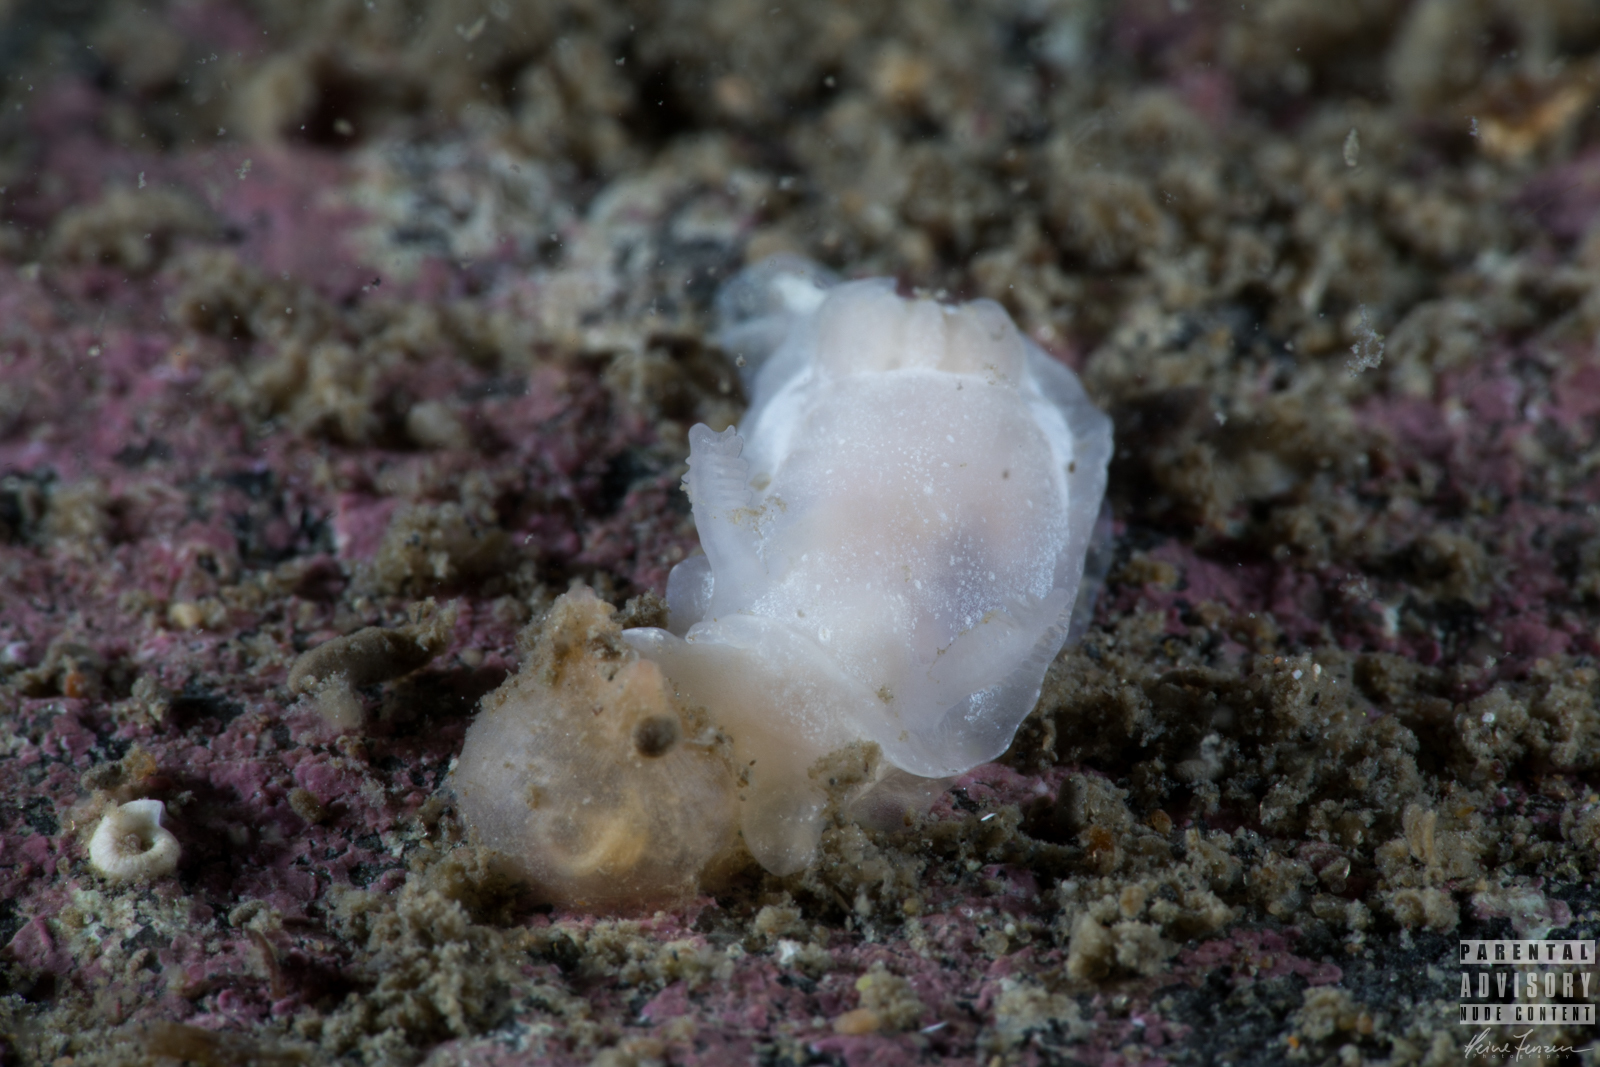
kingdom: Animalia
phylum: Mollusca
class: Gastropoda
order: Nudibranchia
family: Goniodorididae
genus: Okenia
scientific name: Okenia
